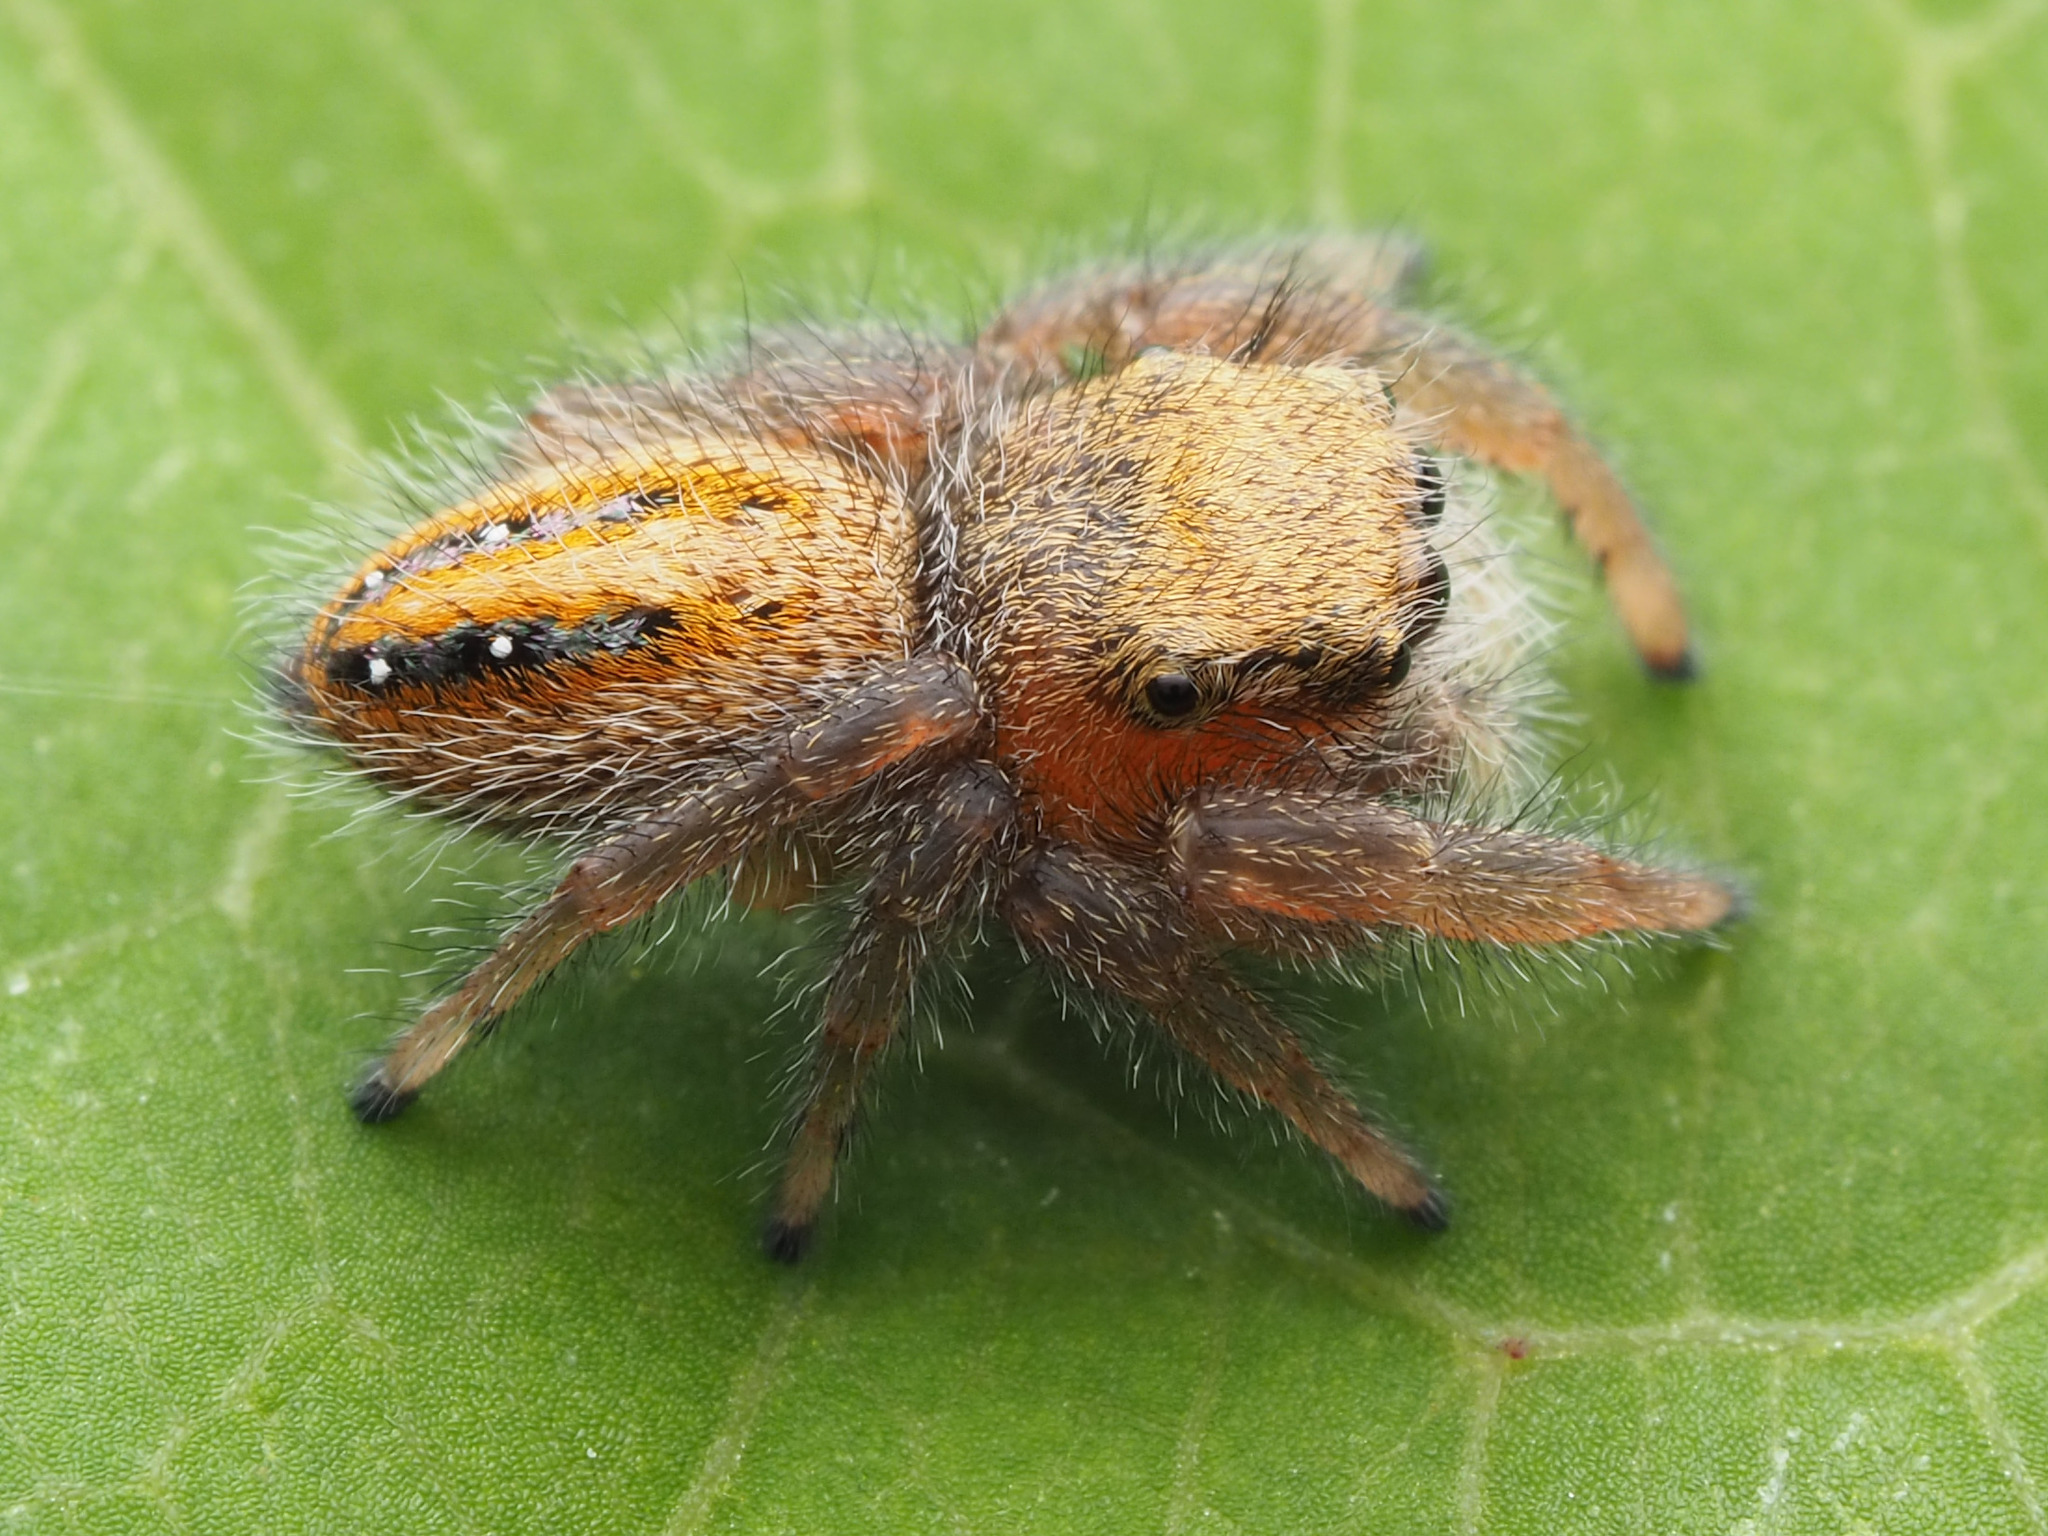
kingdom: Animalia
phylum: Arthropoda
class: Arachnida
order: Araneae
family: Salticidae
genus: Phidippus
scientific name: Phidippus pius
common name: Jumping spiders
